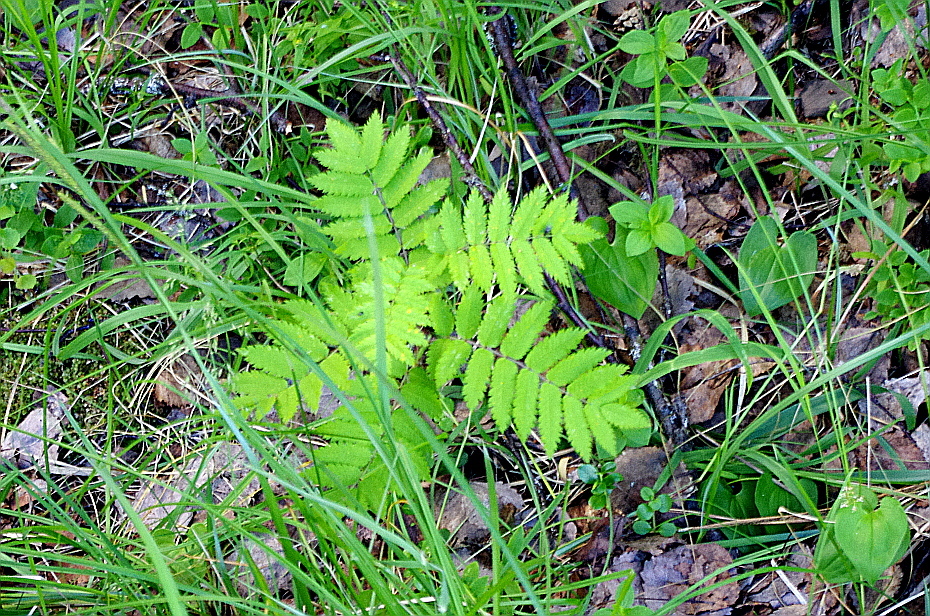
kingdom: Plantae
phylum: Tracheophyta
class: Magnoliopsida
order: Rosales
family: Rosaceae
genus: Sorbus
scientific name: Sorbus aucuparia
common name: Rowan
